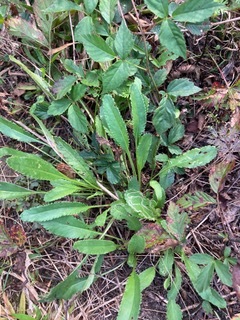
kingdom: Plantae
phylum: Tracheophyta
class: Magnoliopsida
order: Asterales
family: Asteraceae
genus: Packera
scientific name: Packera anonyma
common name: Small ragwort
